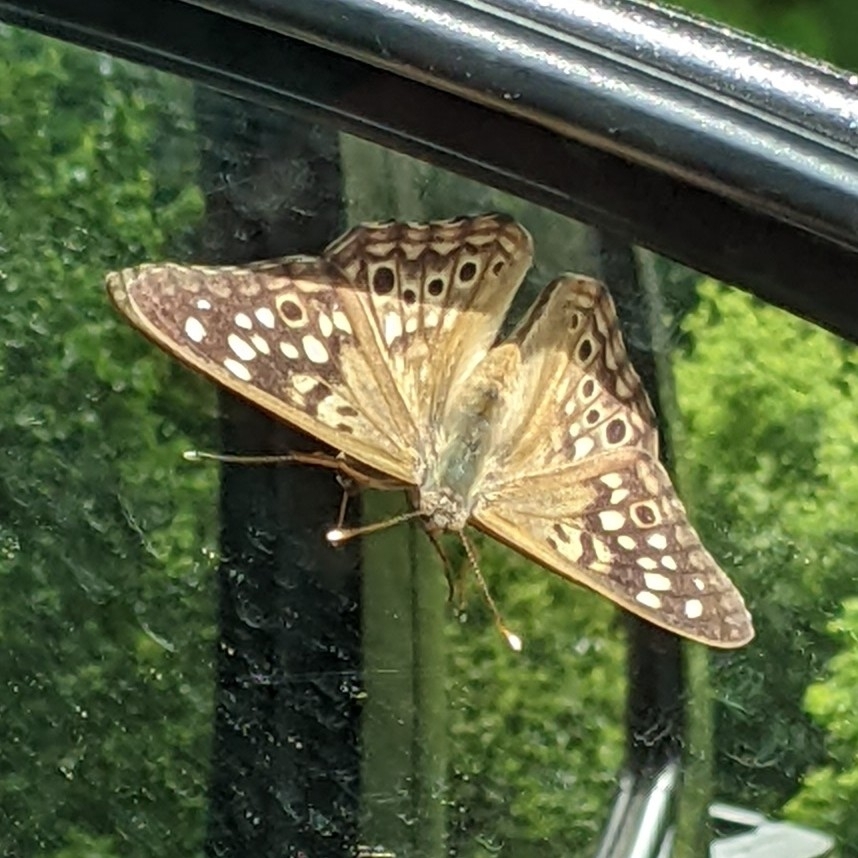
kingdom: Animalia
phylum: Arthropoda
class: Insecta
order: Lepidoptera
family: Nymphalidae
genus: Asterocampa
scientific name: Asterocampa celtis
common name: Hackberry emperor
